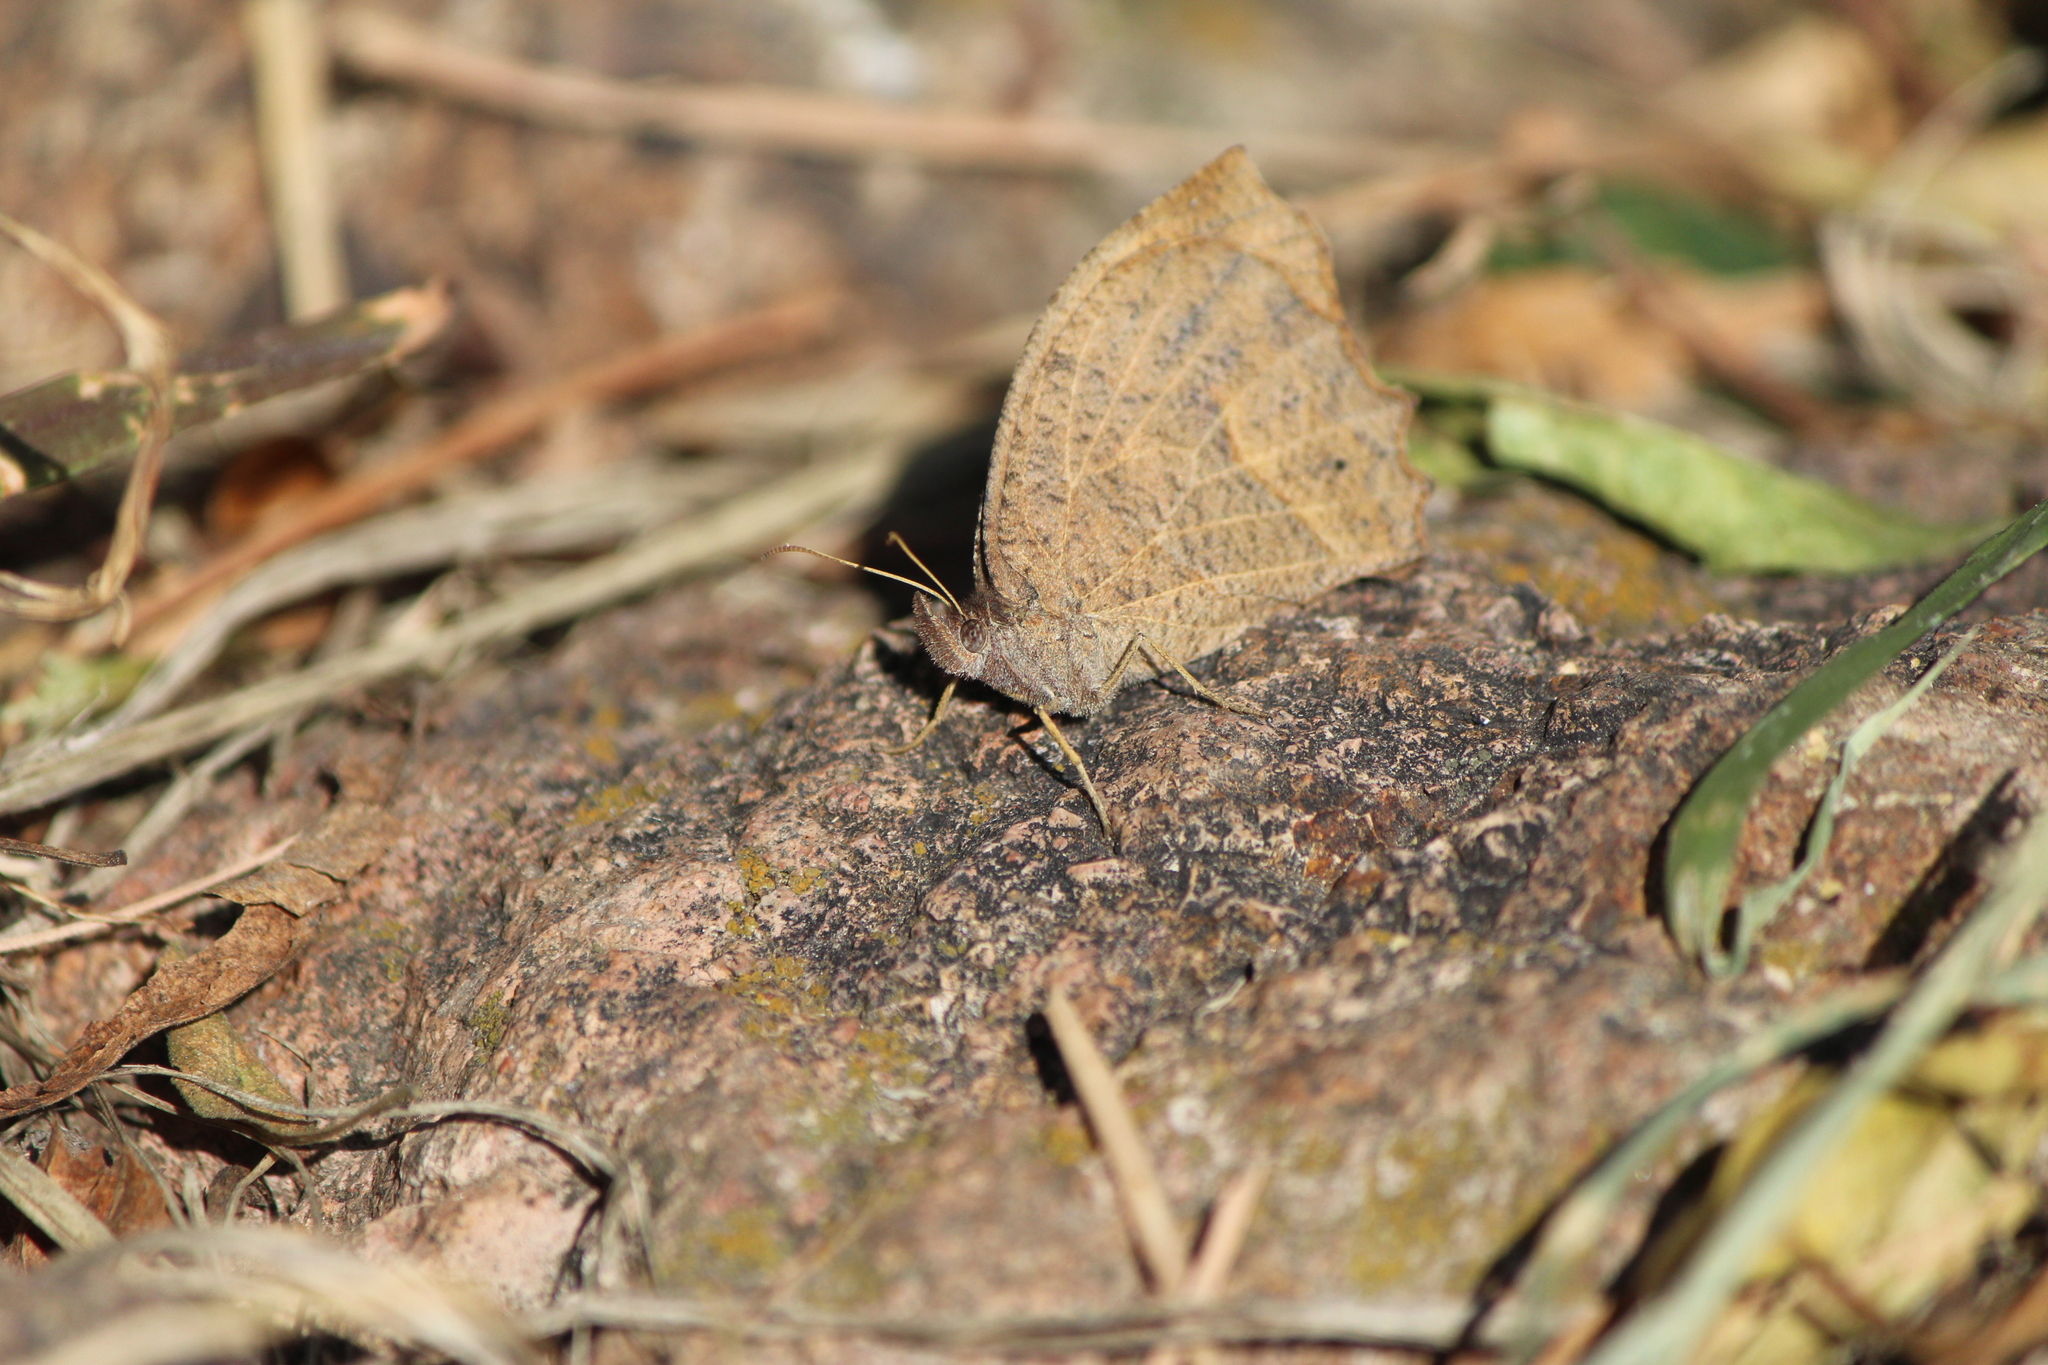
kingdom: Animalia
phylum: Arthropoda
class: Insecta
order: Lepidoptera
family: Nymphalidae
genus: Pindis
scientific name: Pindis squamistriga
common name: Variable satyr
